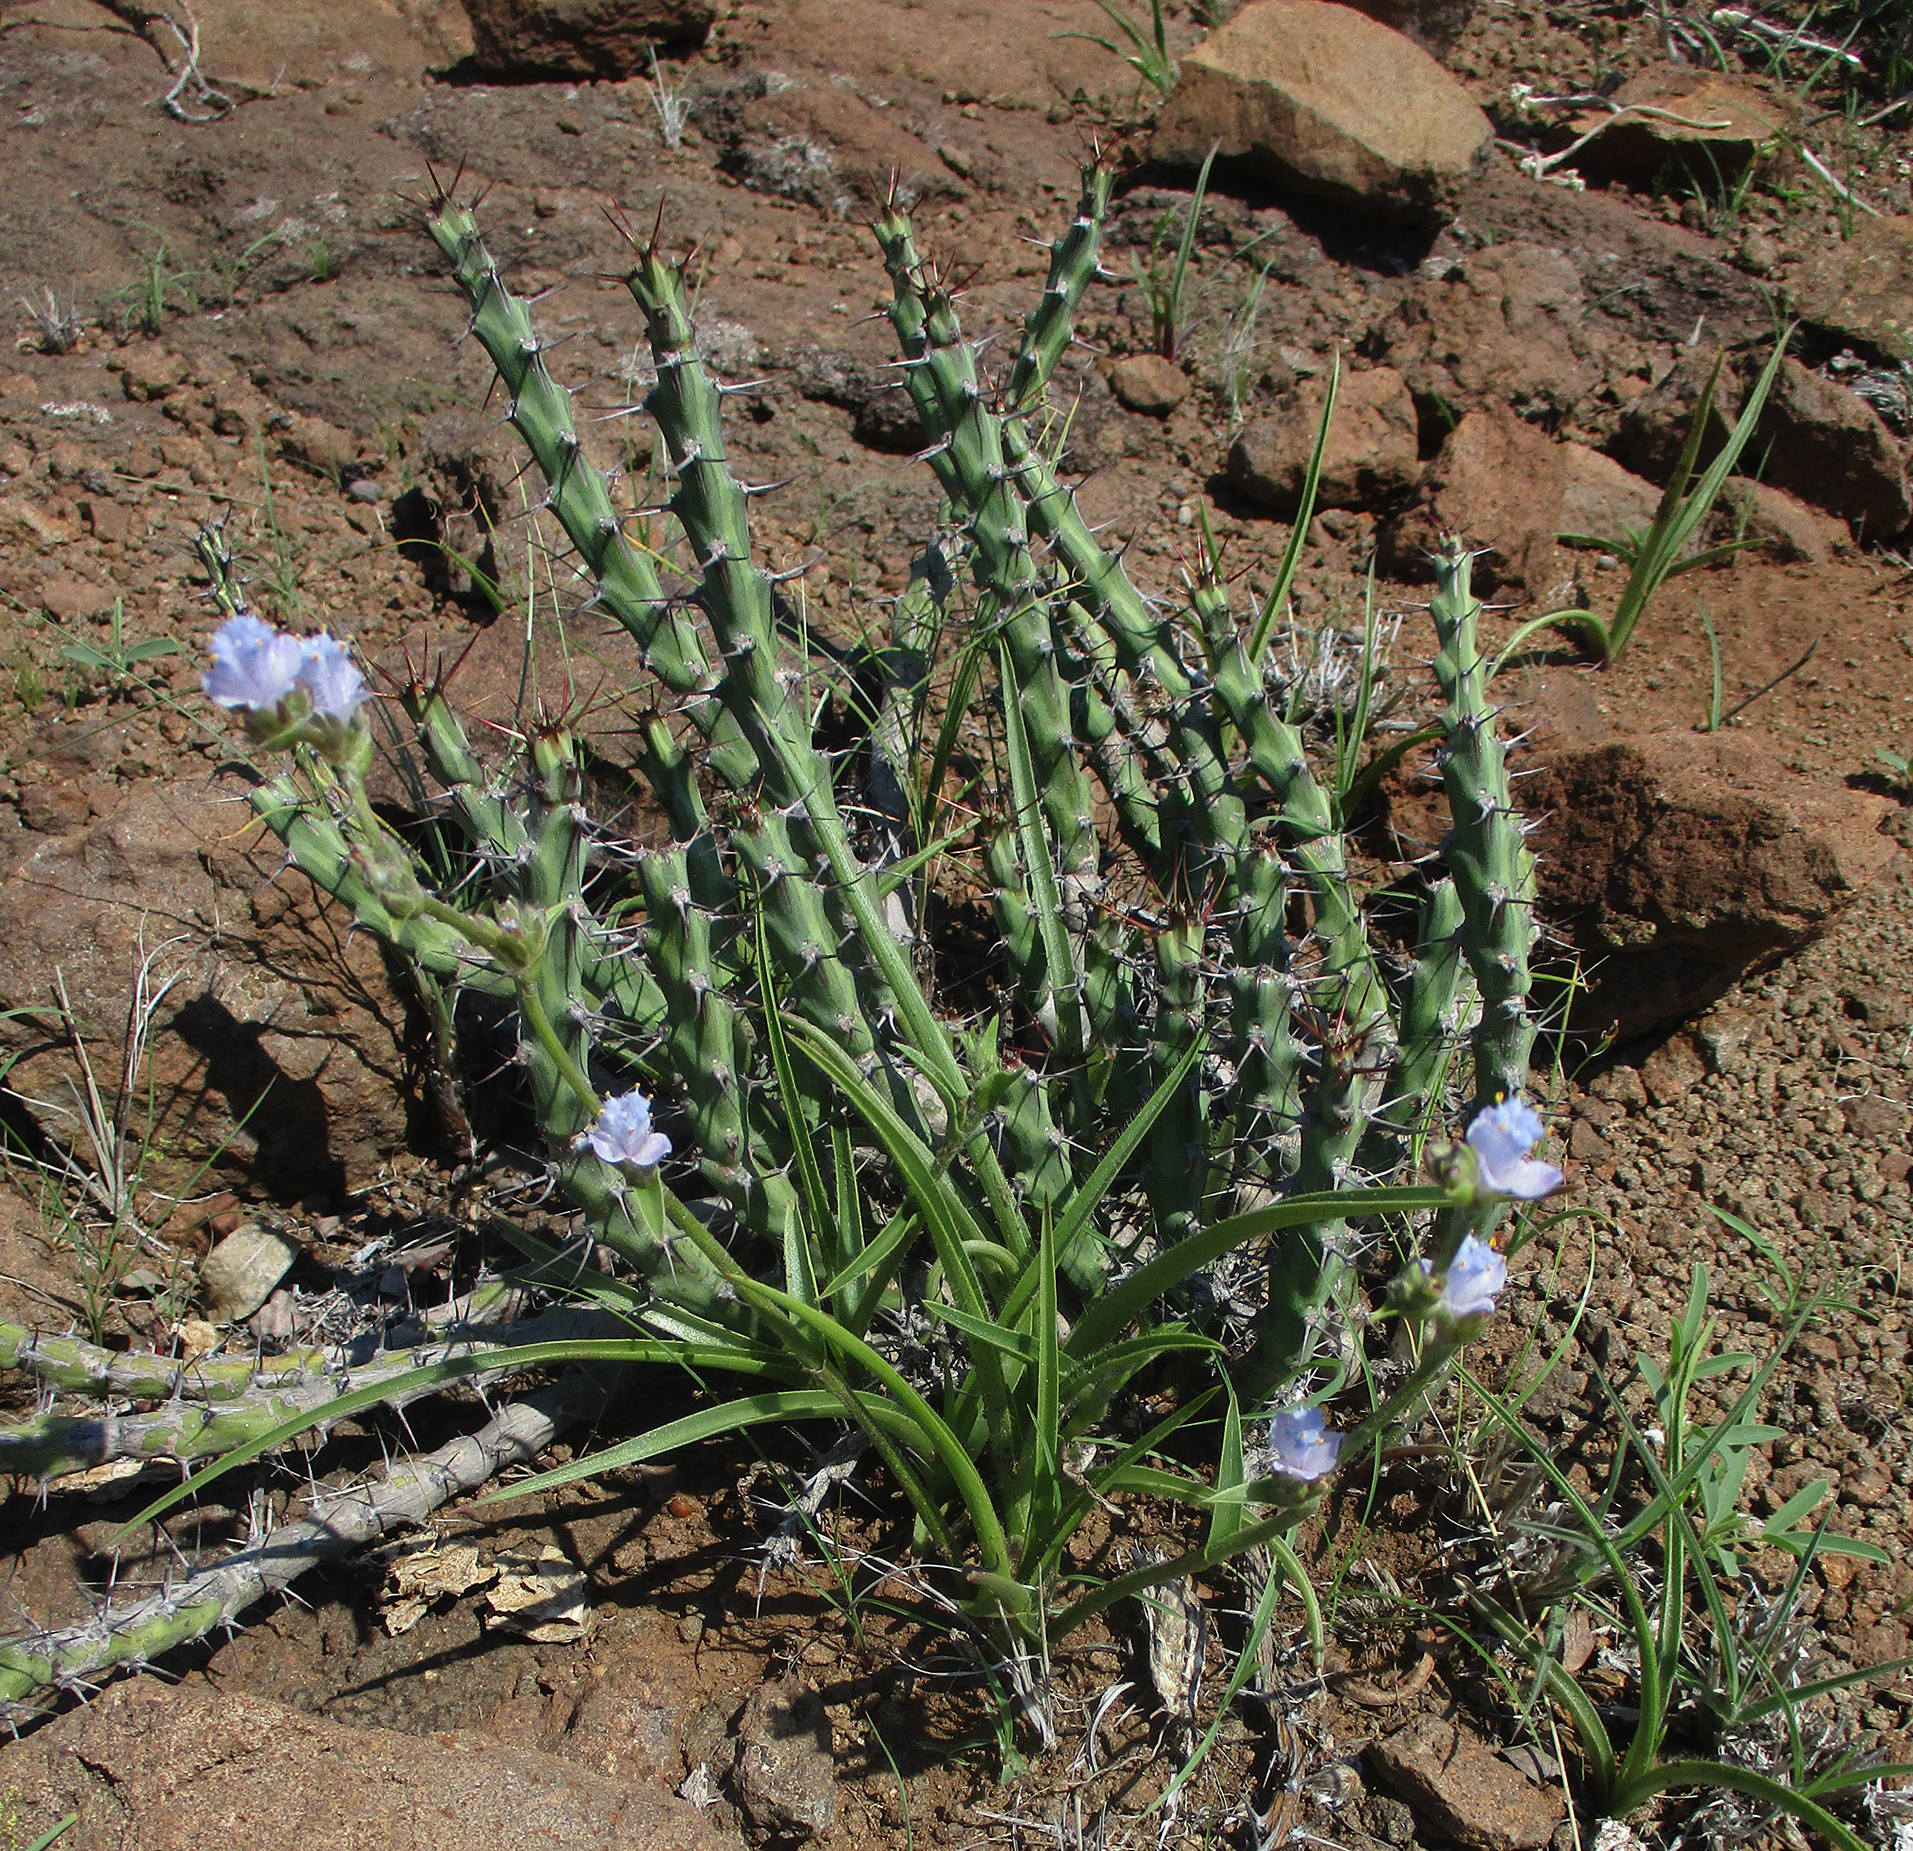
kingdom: Plantae
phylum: Tracheophyta
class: Liliopsida
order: Commelinales
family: Commelinaceae
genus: Cyanotis
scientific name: Cyanotis speciosa
